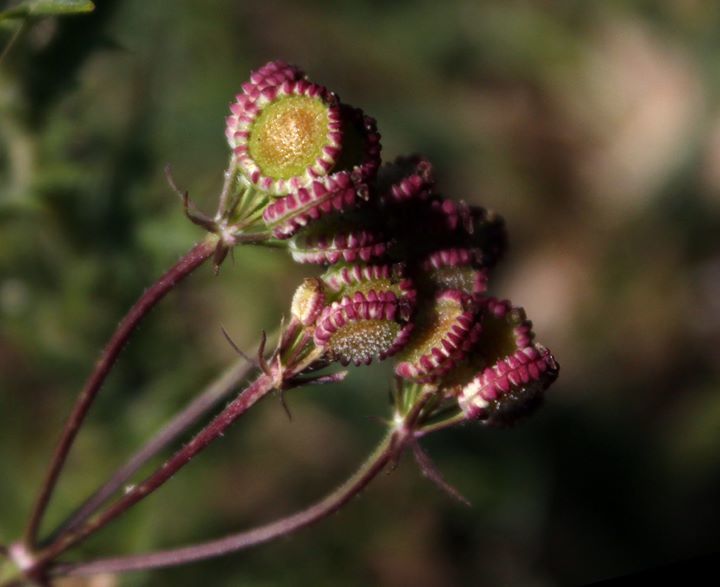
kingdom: Plantae
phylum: Tracheophyta
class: Magnoliopsida
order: Apiales
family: Apiaceae
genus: Tordylium
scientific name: Tordylium apulum
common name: Mediterranean hartwort
